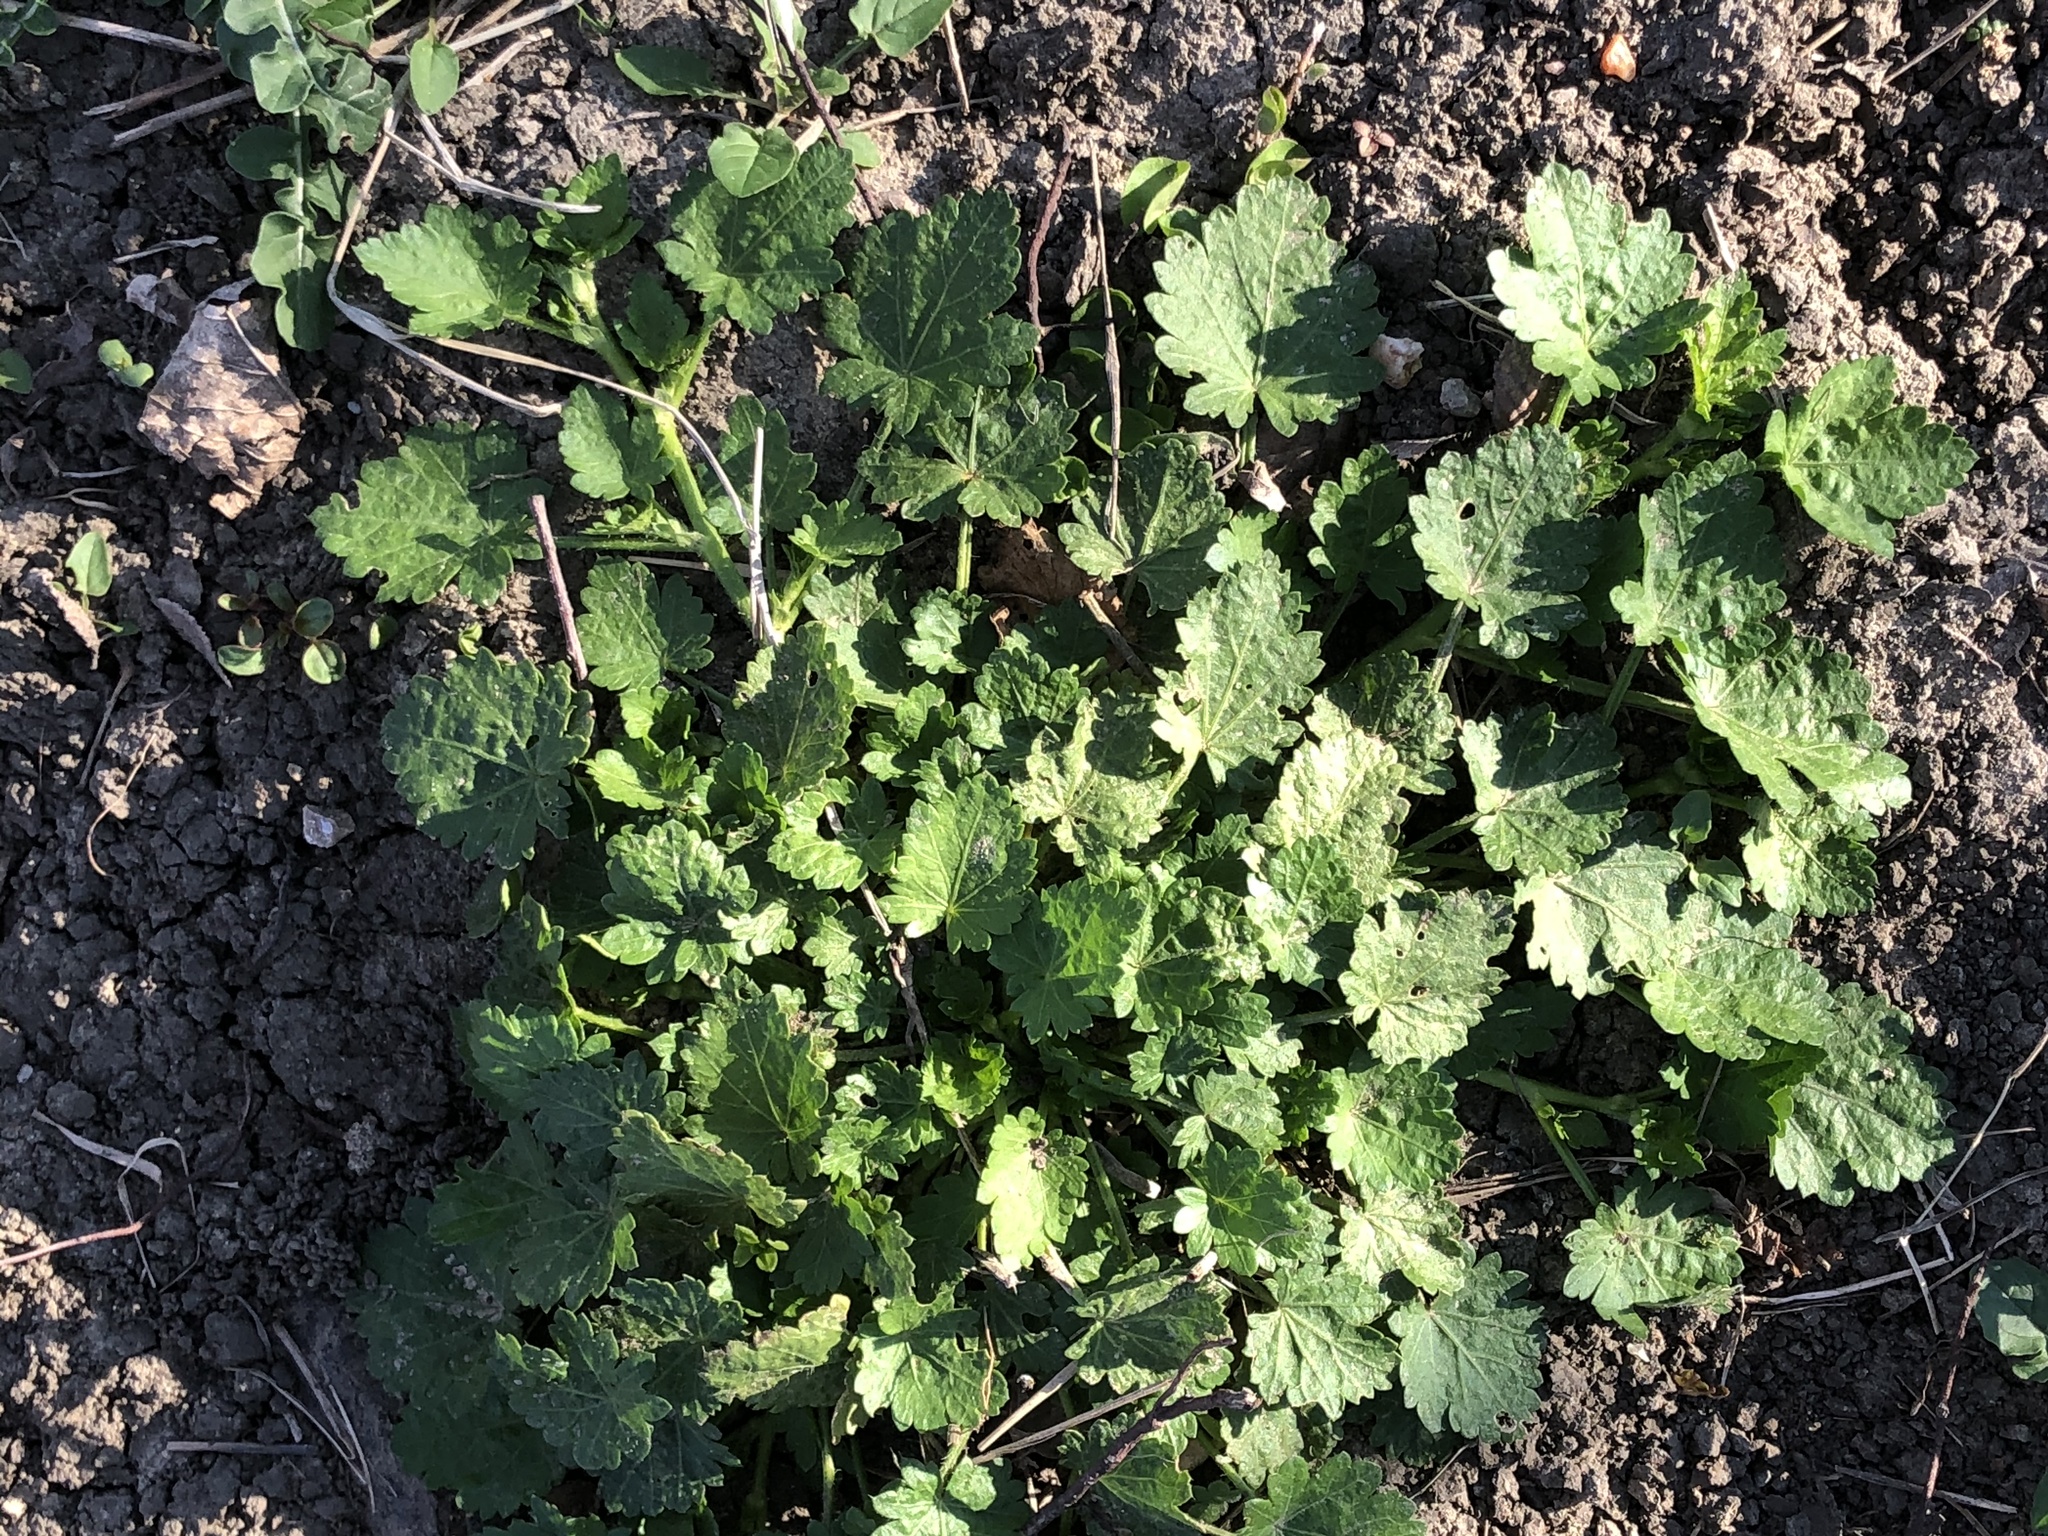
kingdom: Plantae
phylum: Tracheophyta
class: Magnoliopsida
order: Malvales
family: Malvaceae
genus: Modiola
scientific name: Modiola caroliniana
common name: Carolina bristlemallow
